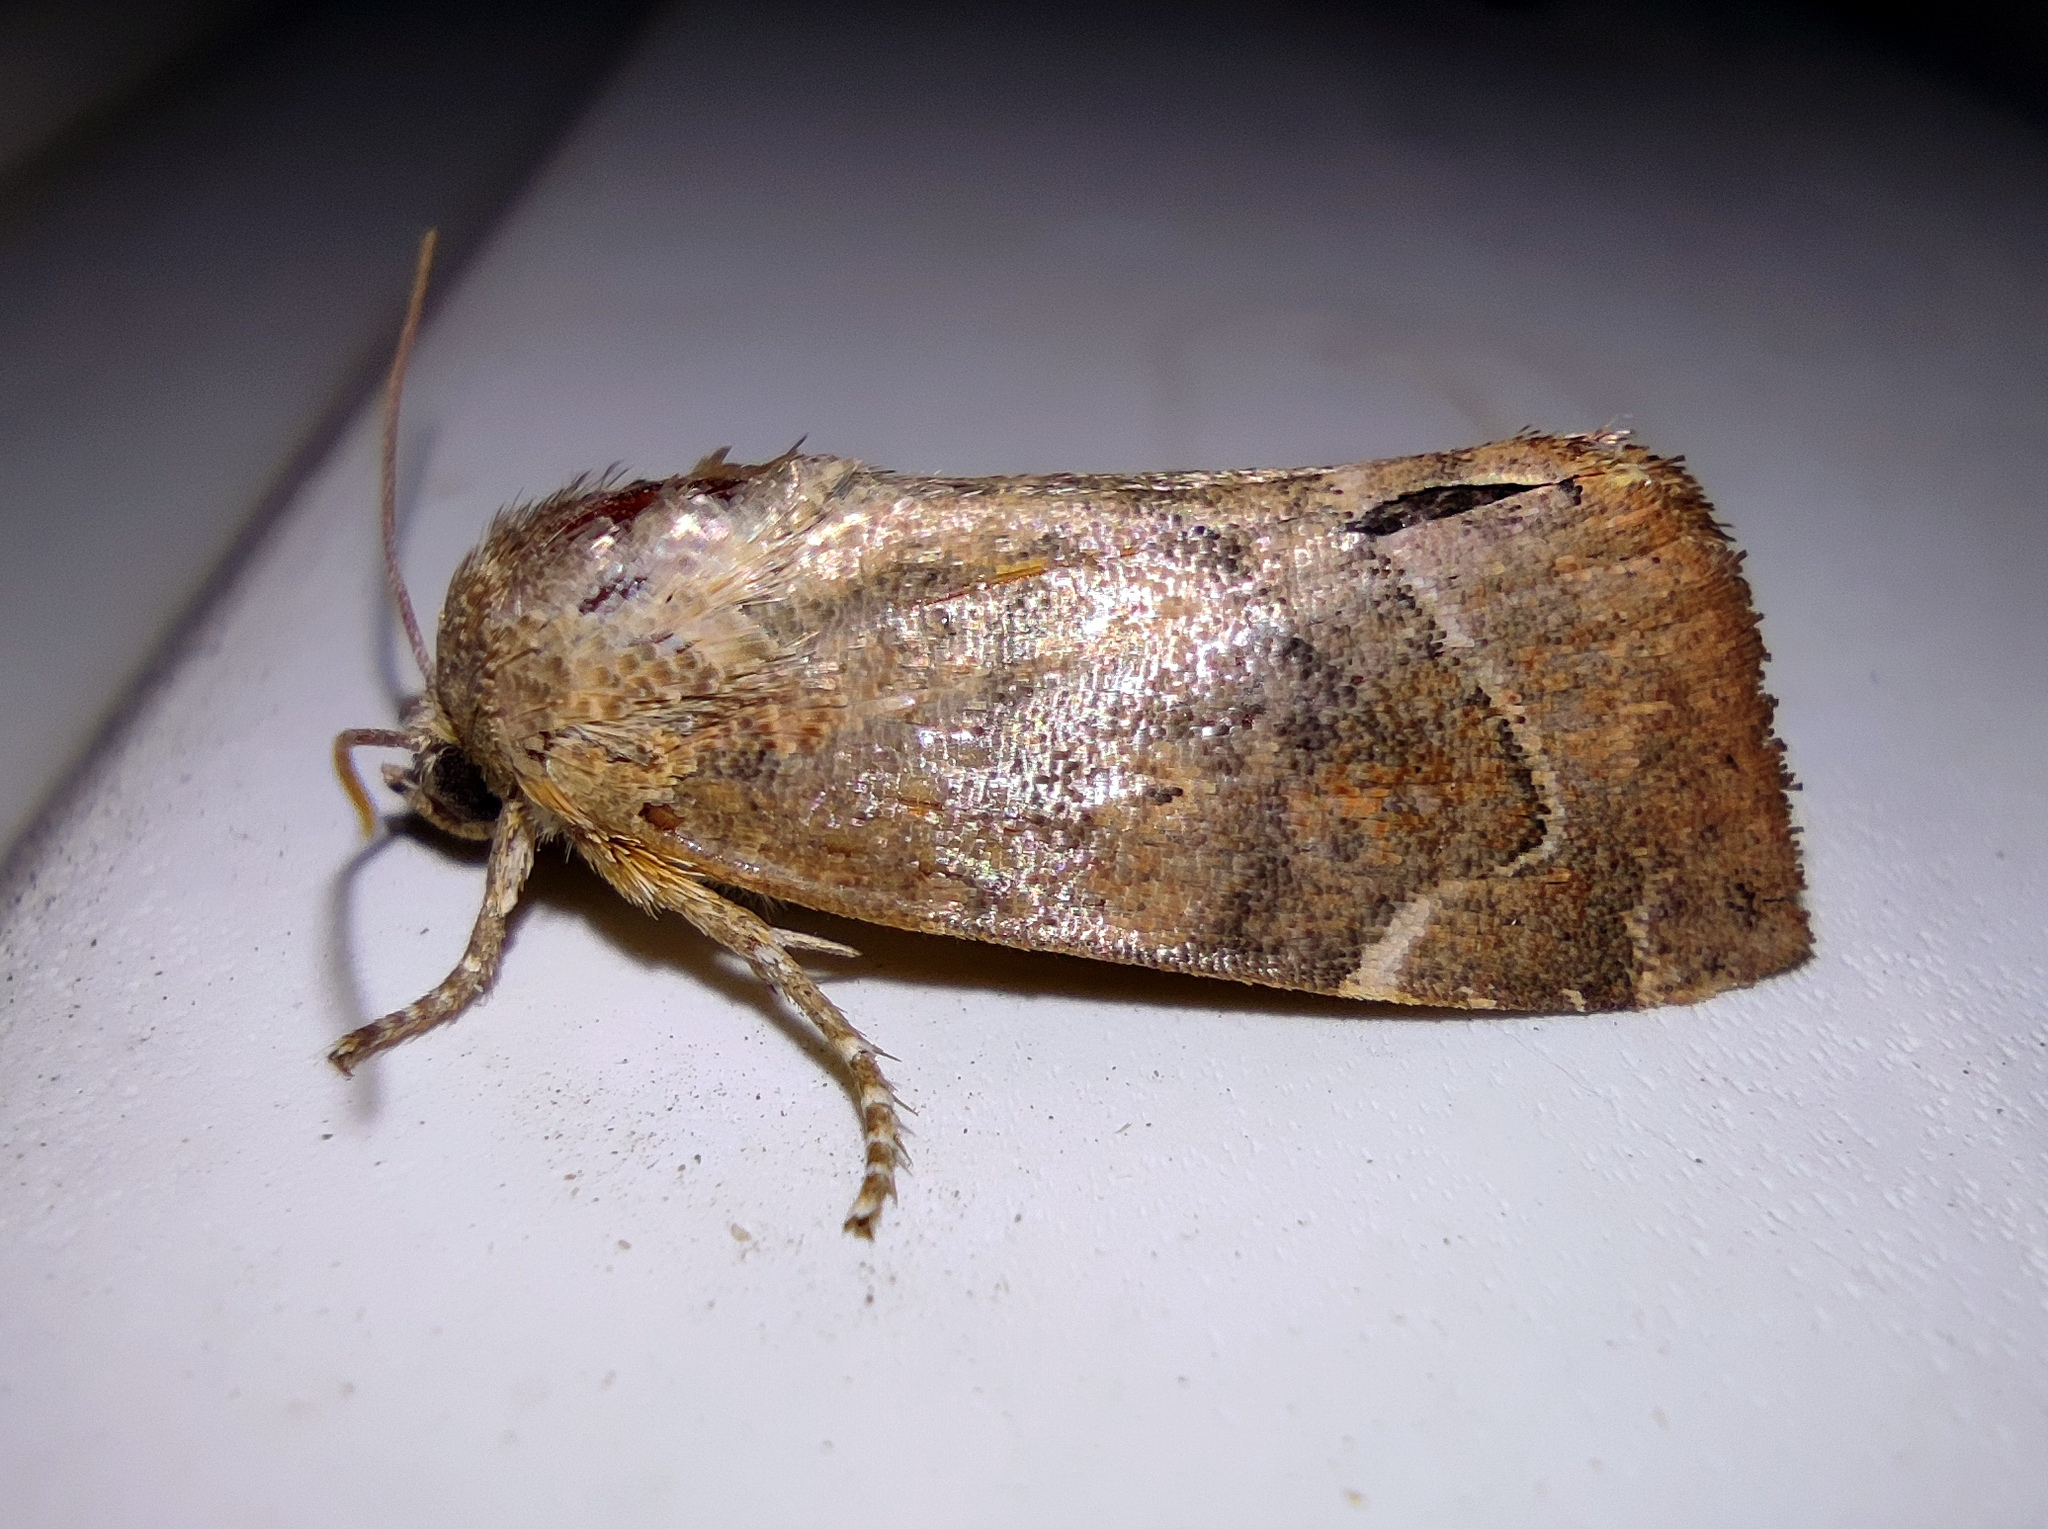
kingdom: Animalia
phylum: Arthropoda
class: Insecta
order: Lepidoptera
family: Noctuidae
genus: Cosmia
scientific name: Cosmia affinis
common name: Lesser-spotted pinion
